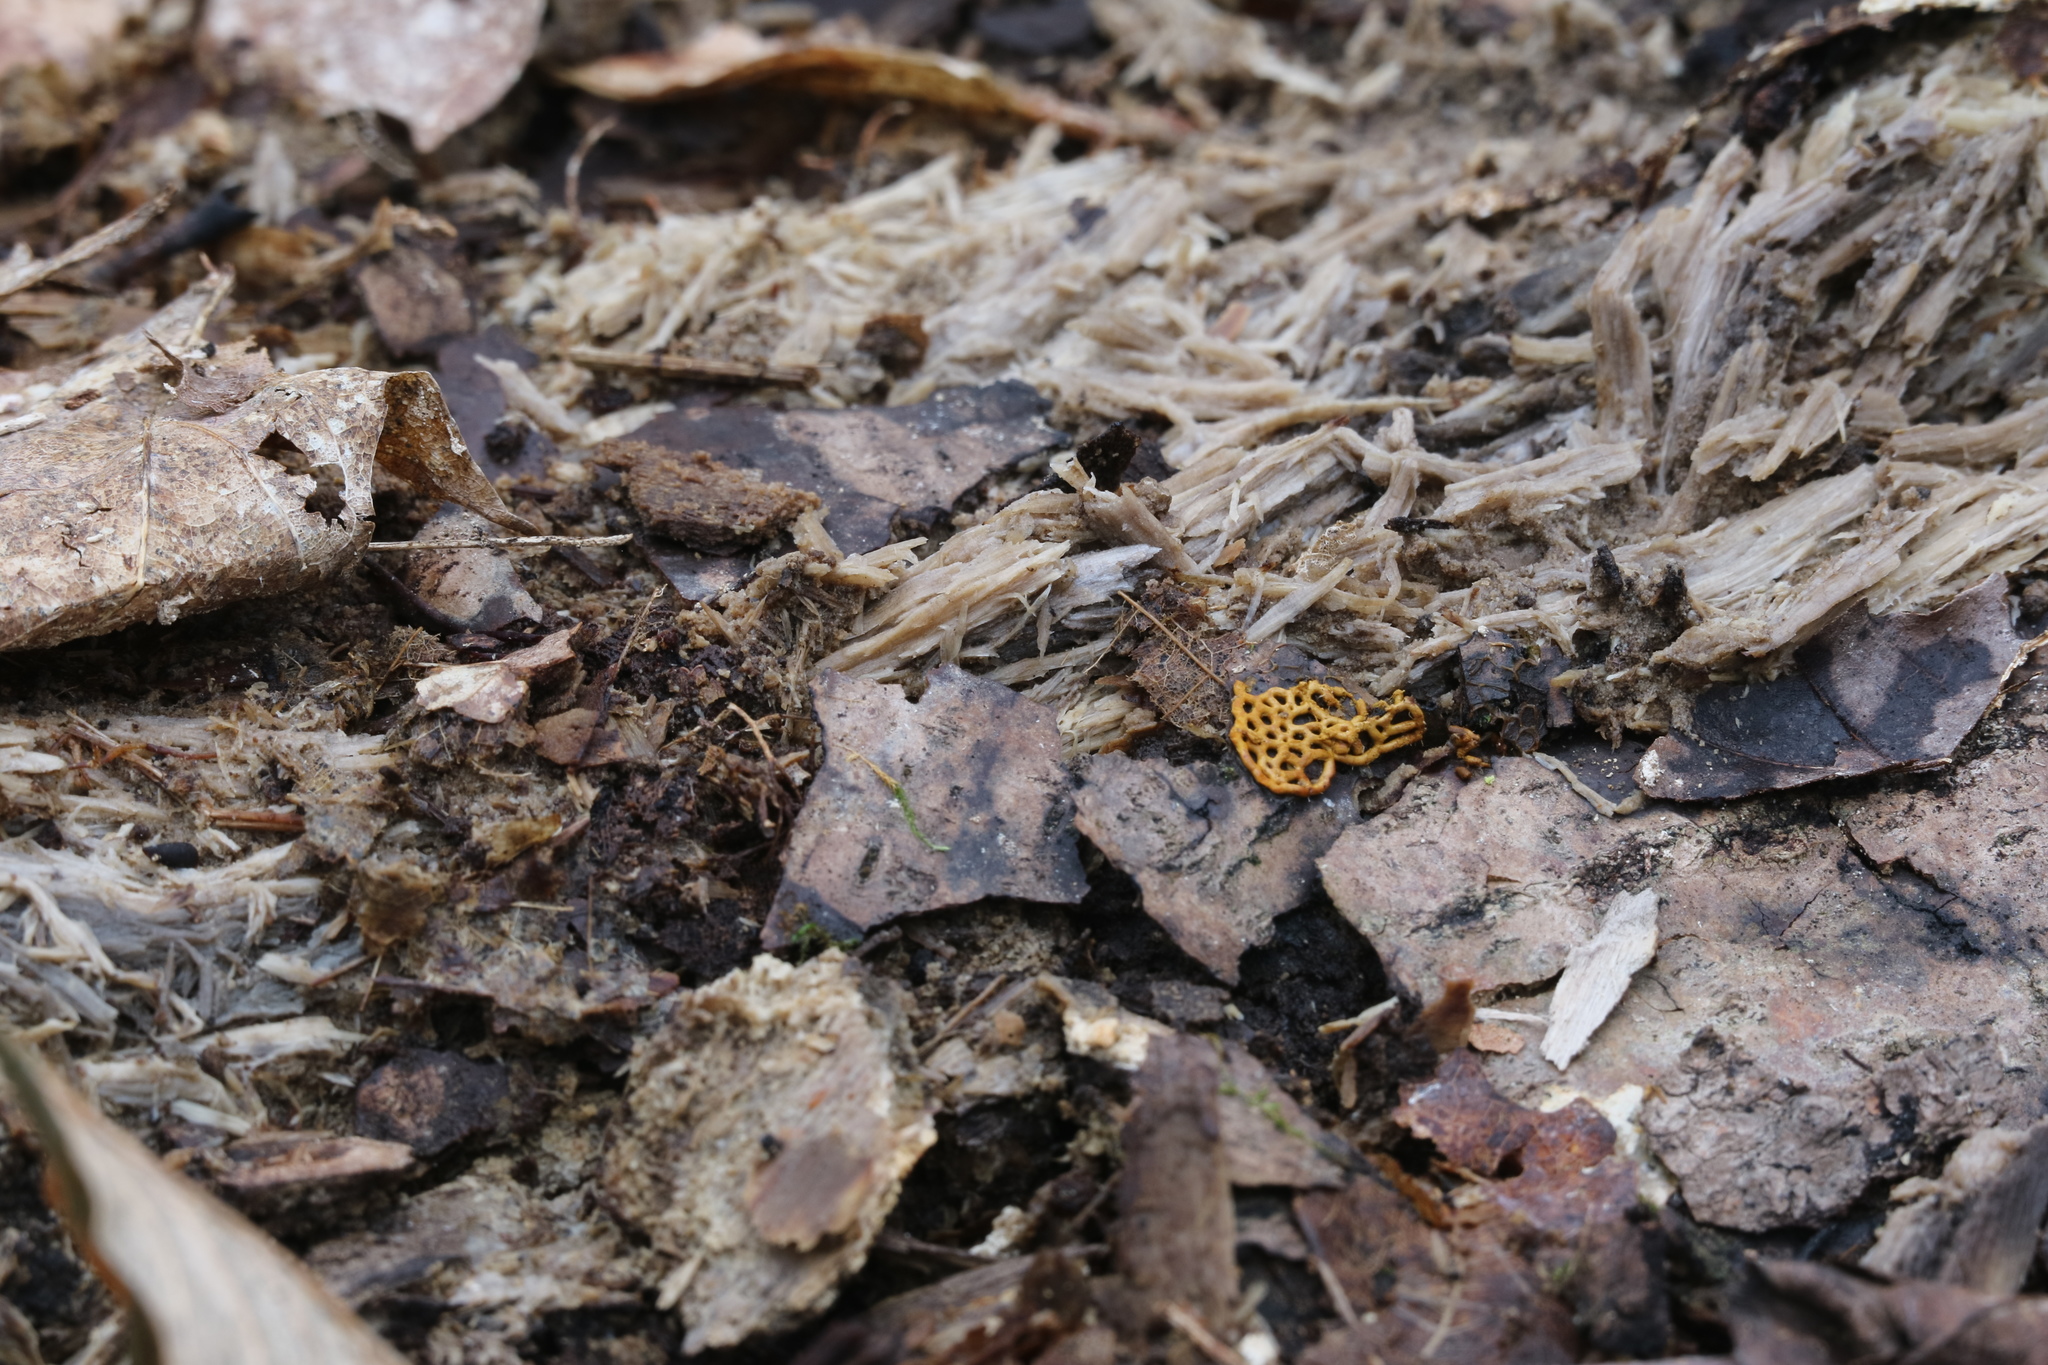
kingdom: Protozoa
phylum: Mycetozoa
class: Myxomycetes
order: Trichiales
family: Arcyriaceae
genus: Hemitrichia
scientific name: Hemitrichia serpula
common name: Pretzel slime mold
